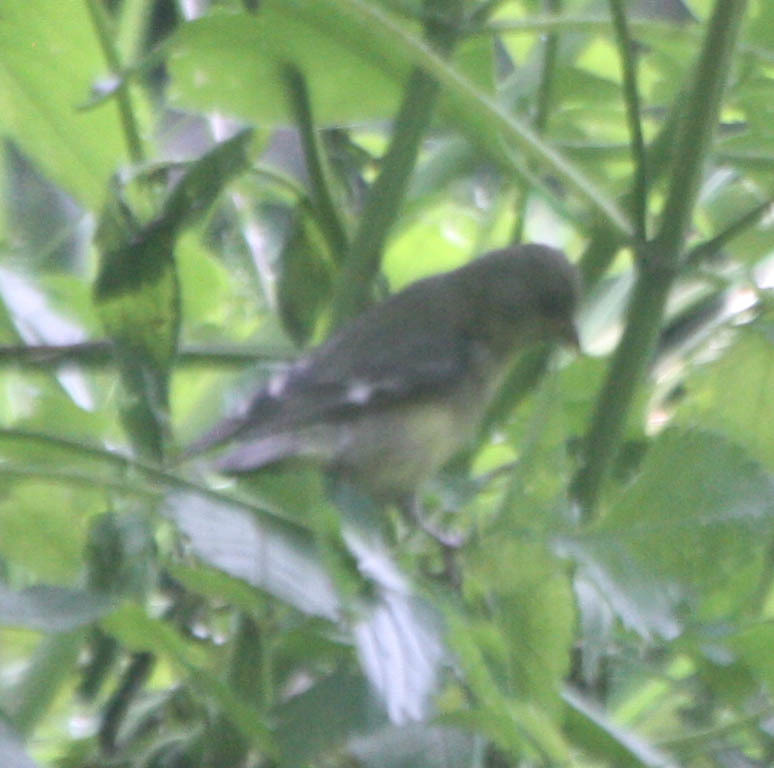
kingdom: Animalia
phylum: Chordata
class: Aves
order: Passeriformes
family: Fringillidae
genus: Spinus
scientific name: Spinus psaltria
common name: Lesser goldfinch
